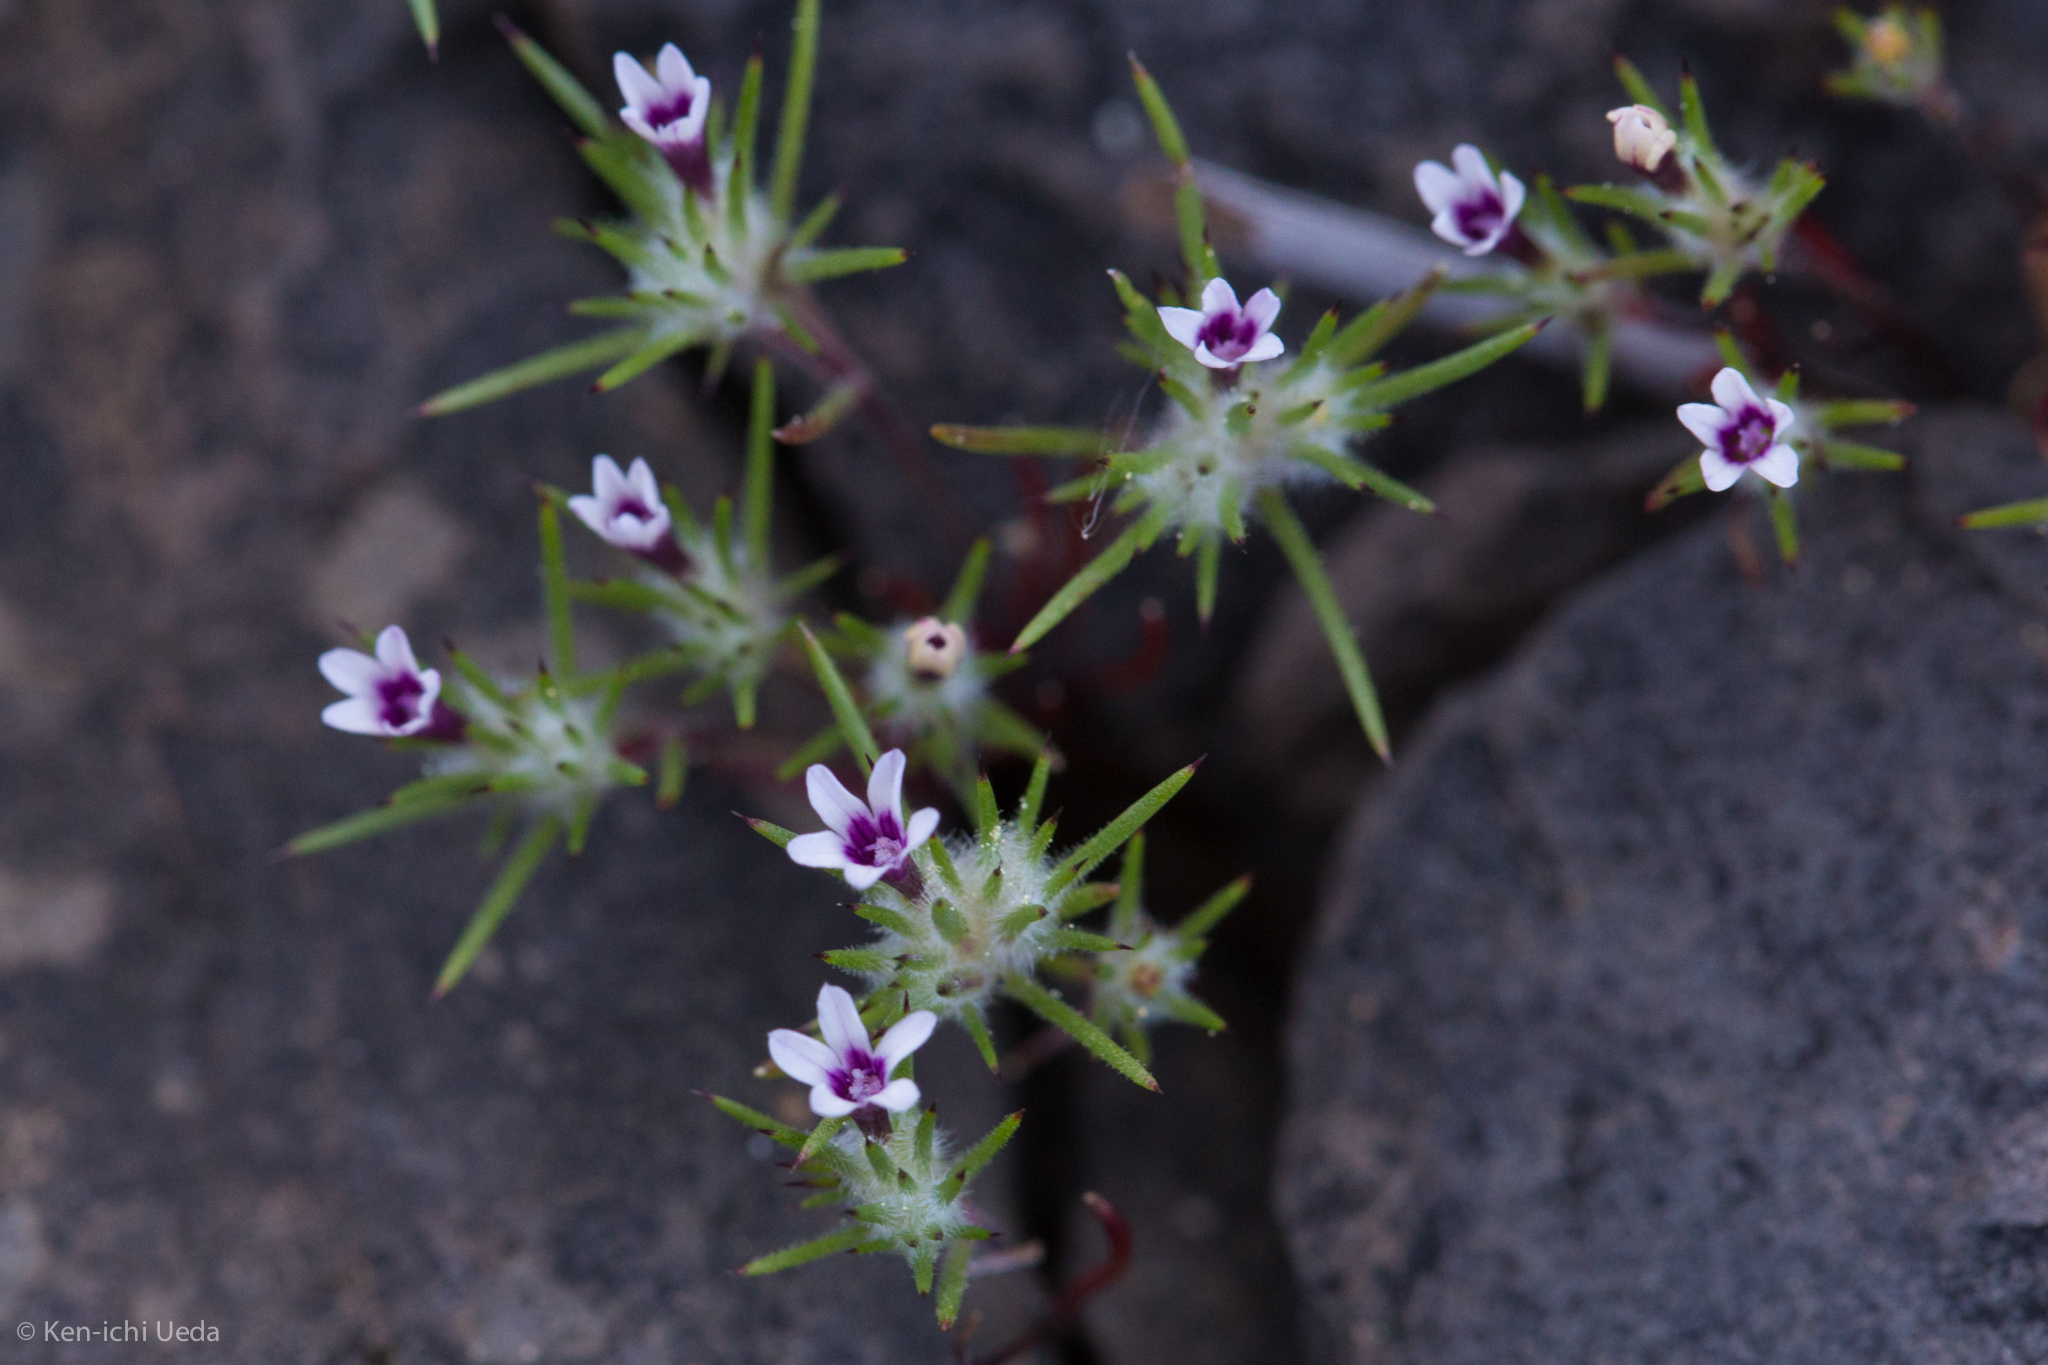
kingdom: Plantae
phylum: Tracheophyta
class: Magnoliopsida
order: Ericales
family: Polemoniaceae
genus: Navarretia
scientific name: Navarretia torreyella
